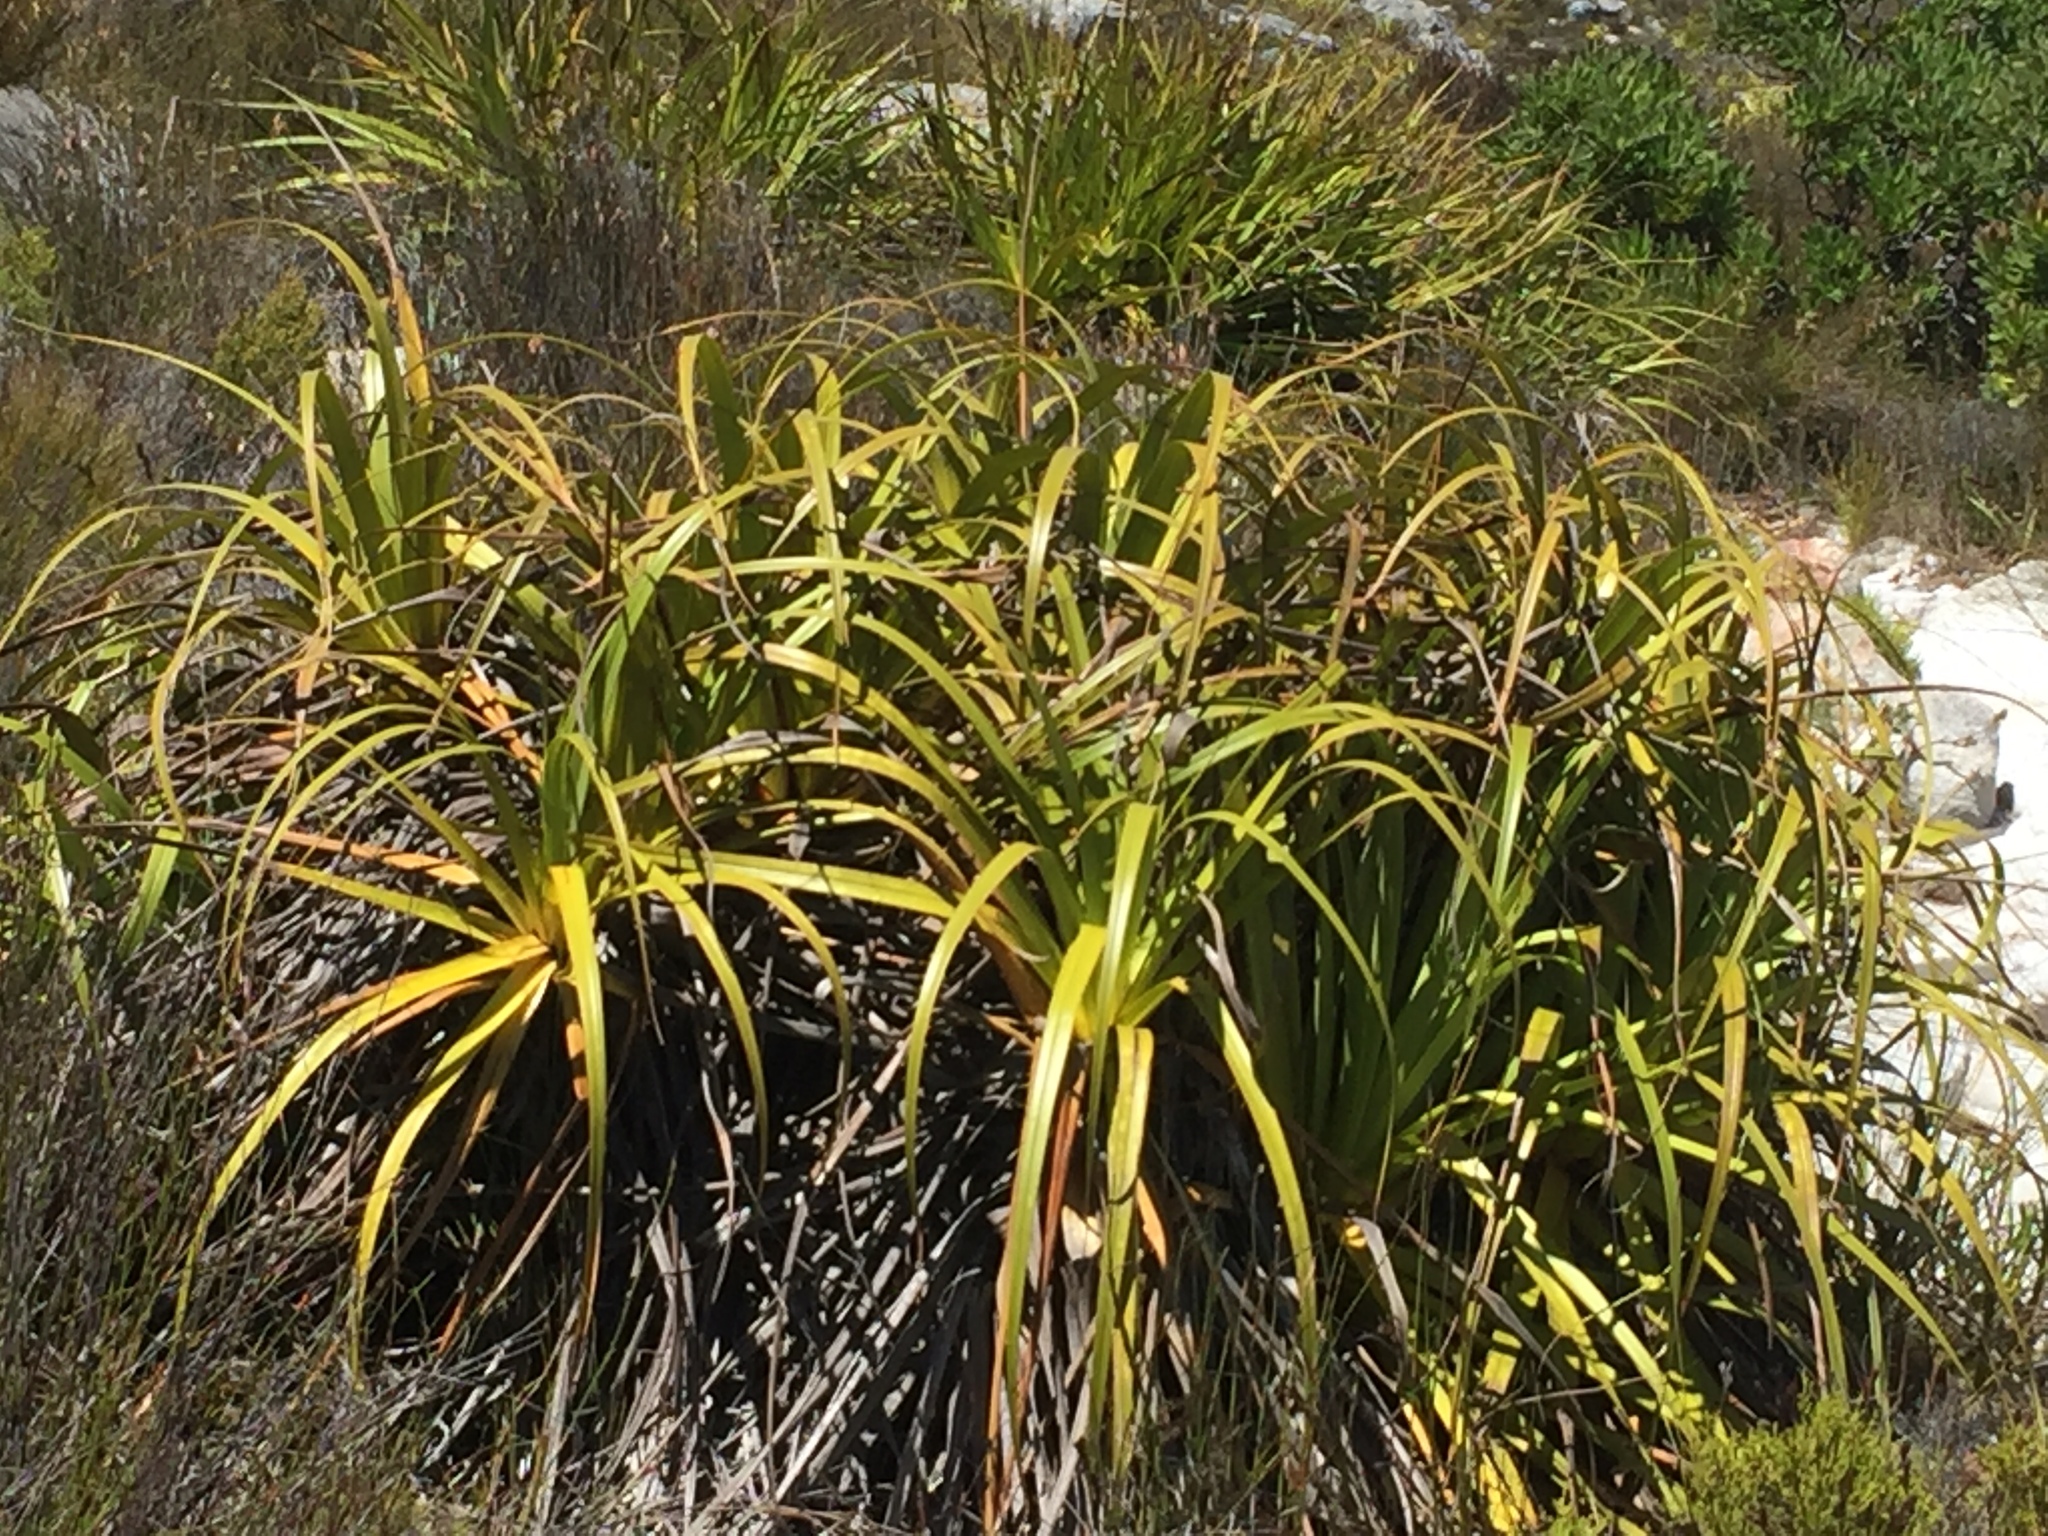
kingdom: Plantae
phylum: Tracheophyta
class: Liliopsida
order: Poales
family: Cyperaceae
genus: Tetraria
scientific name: Tetraria thermalis
